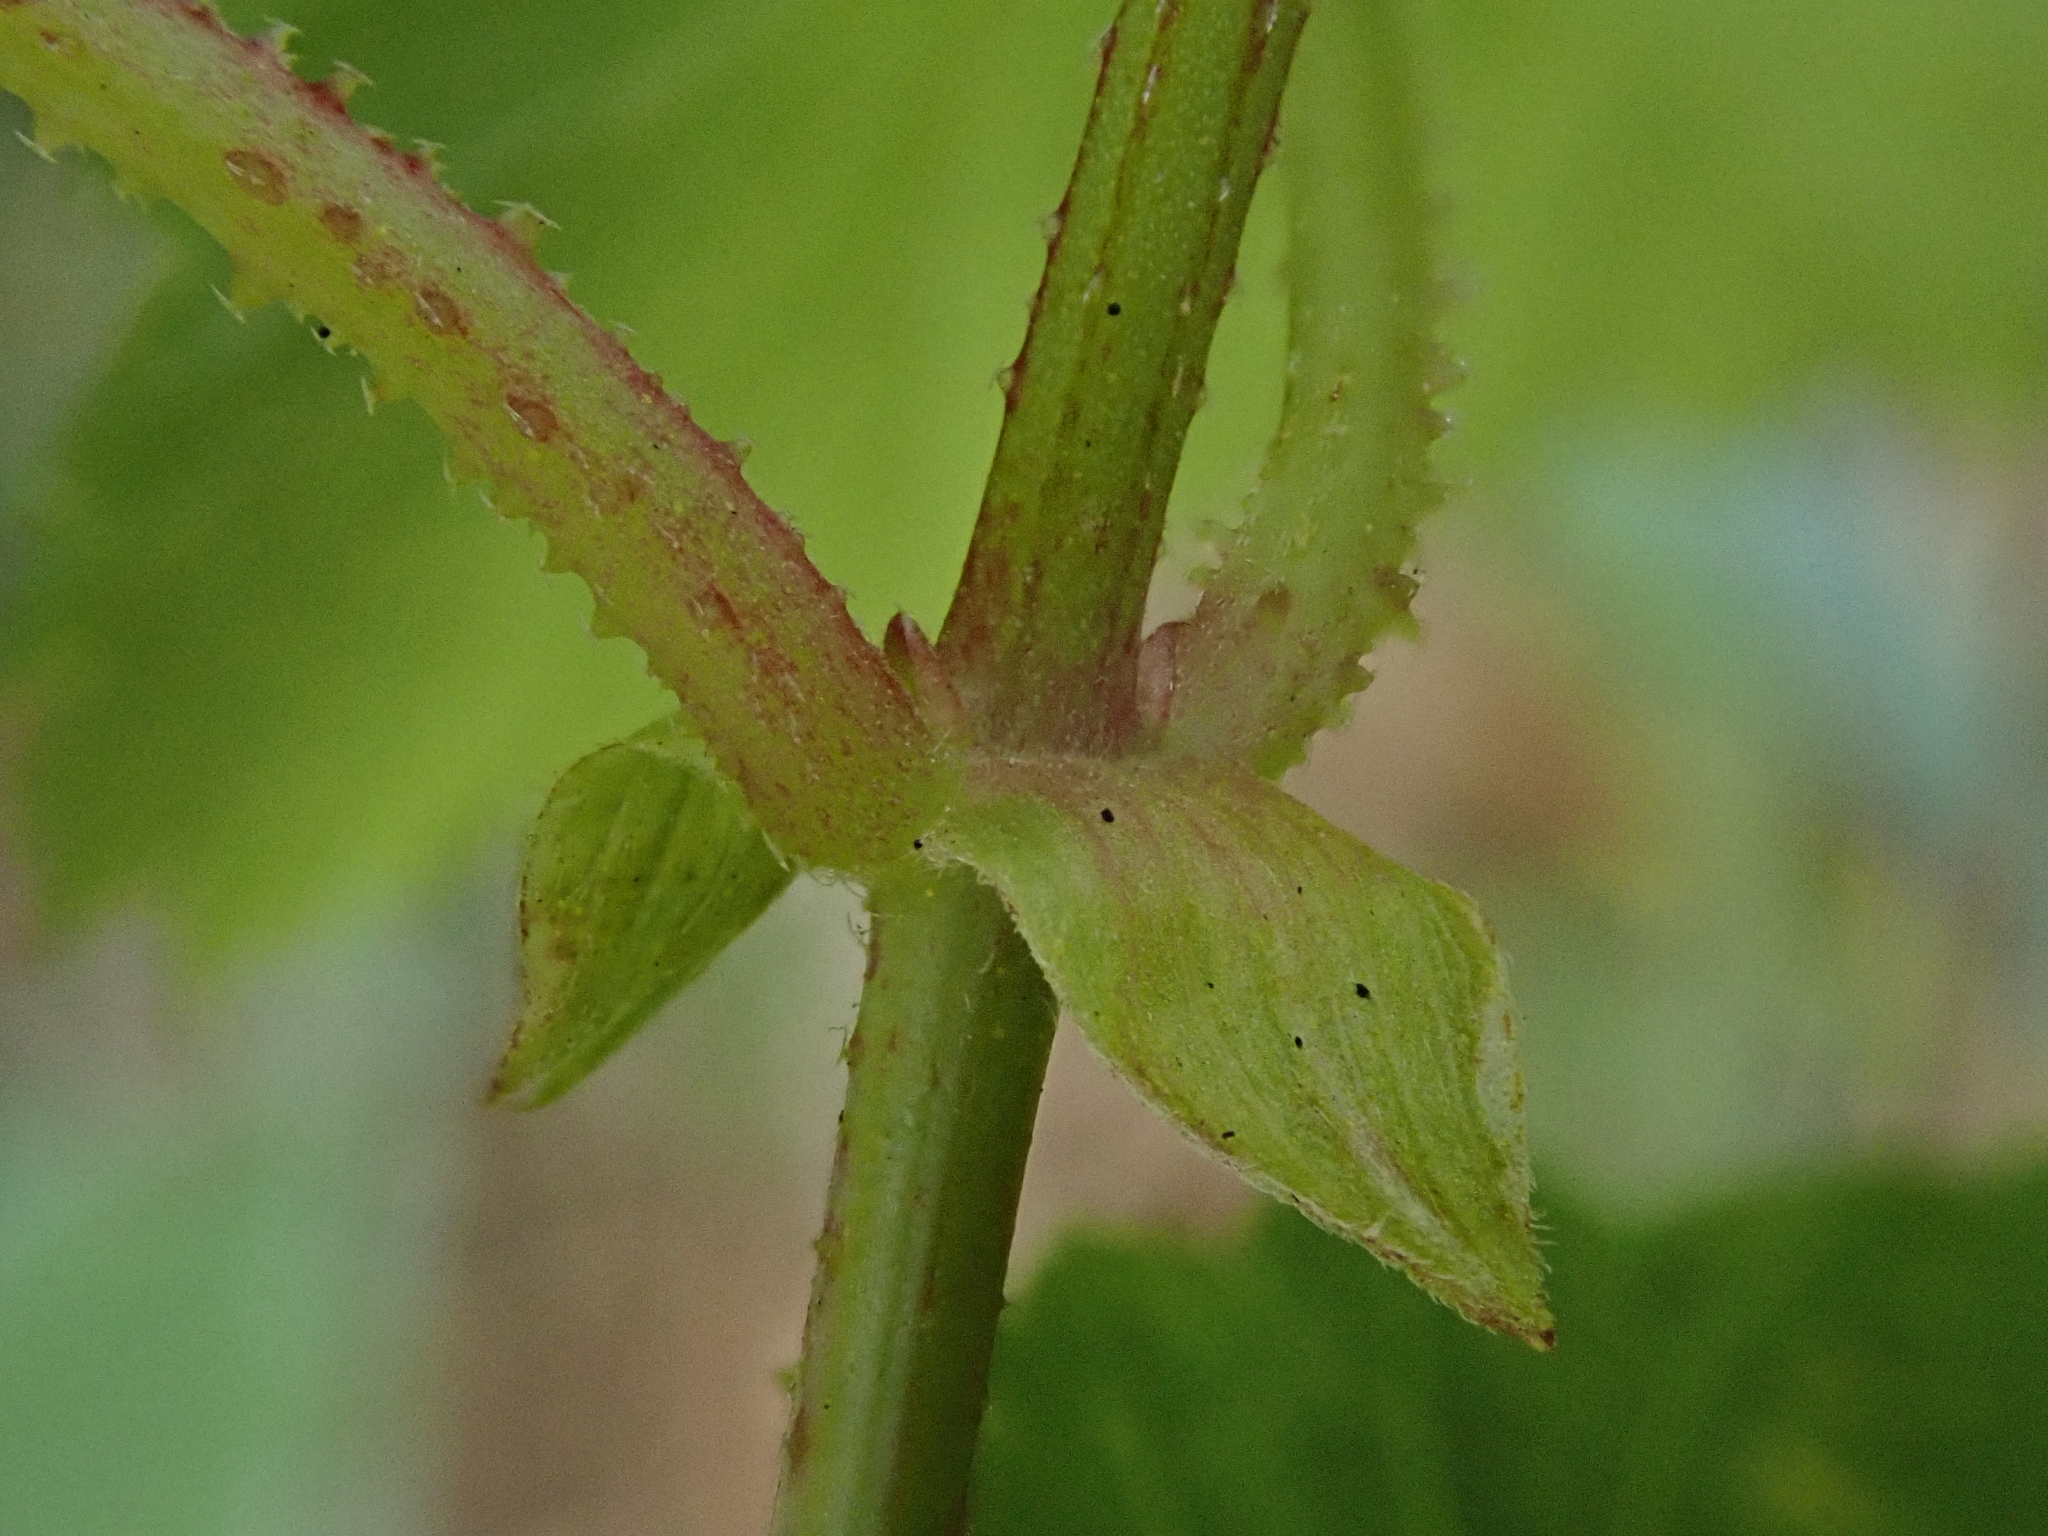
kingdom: Plantae
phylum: Tracheophyta
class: Magnoliopsida
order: Rosales
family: Cannabaceae
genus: Humulus
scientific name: Humulus lupulus
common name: Hop
